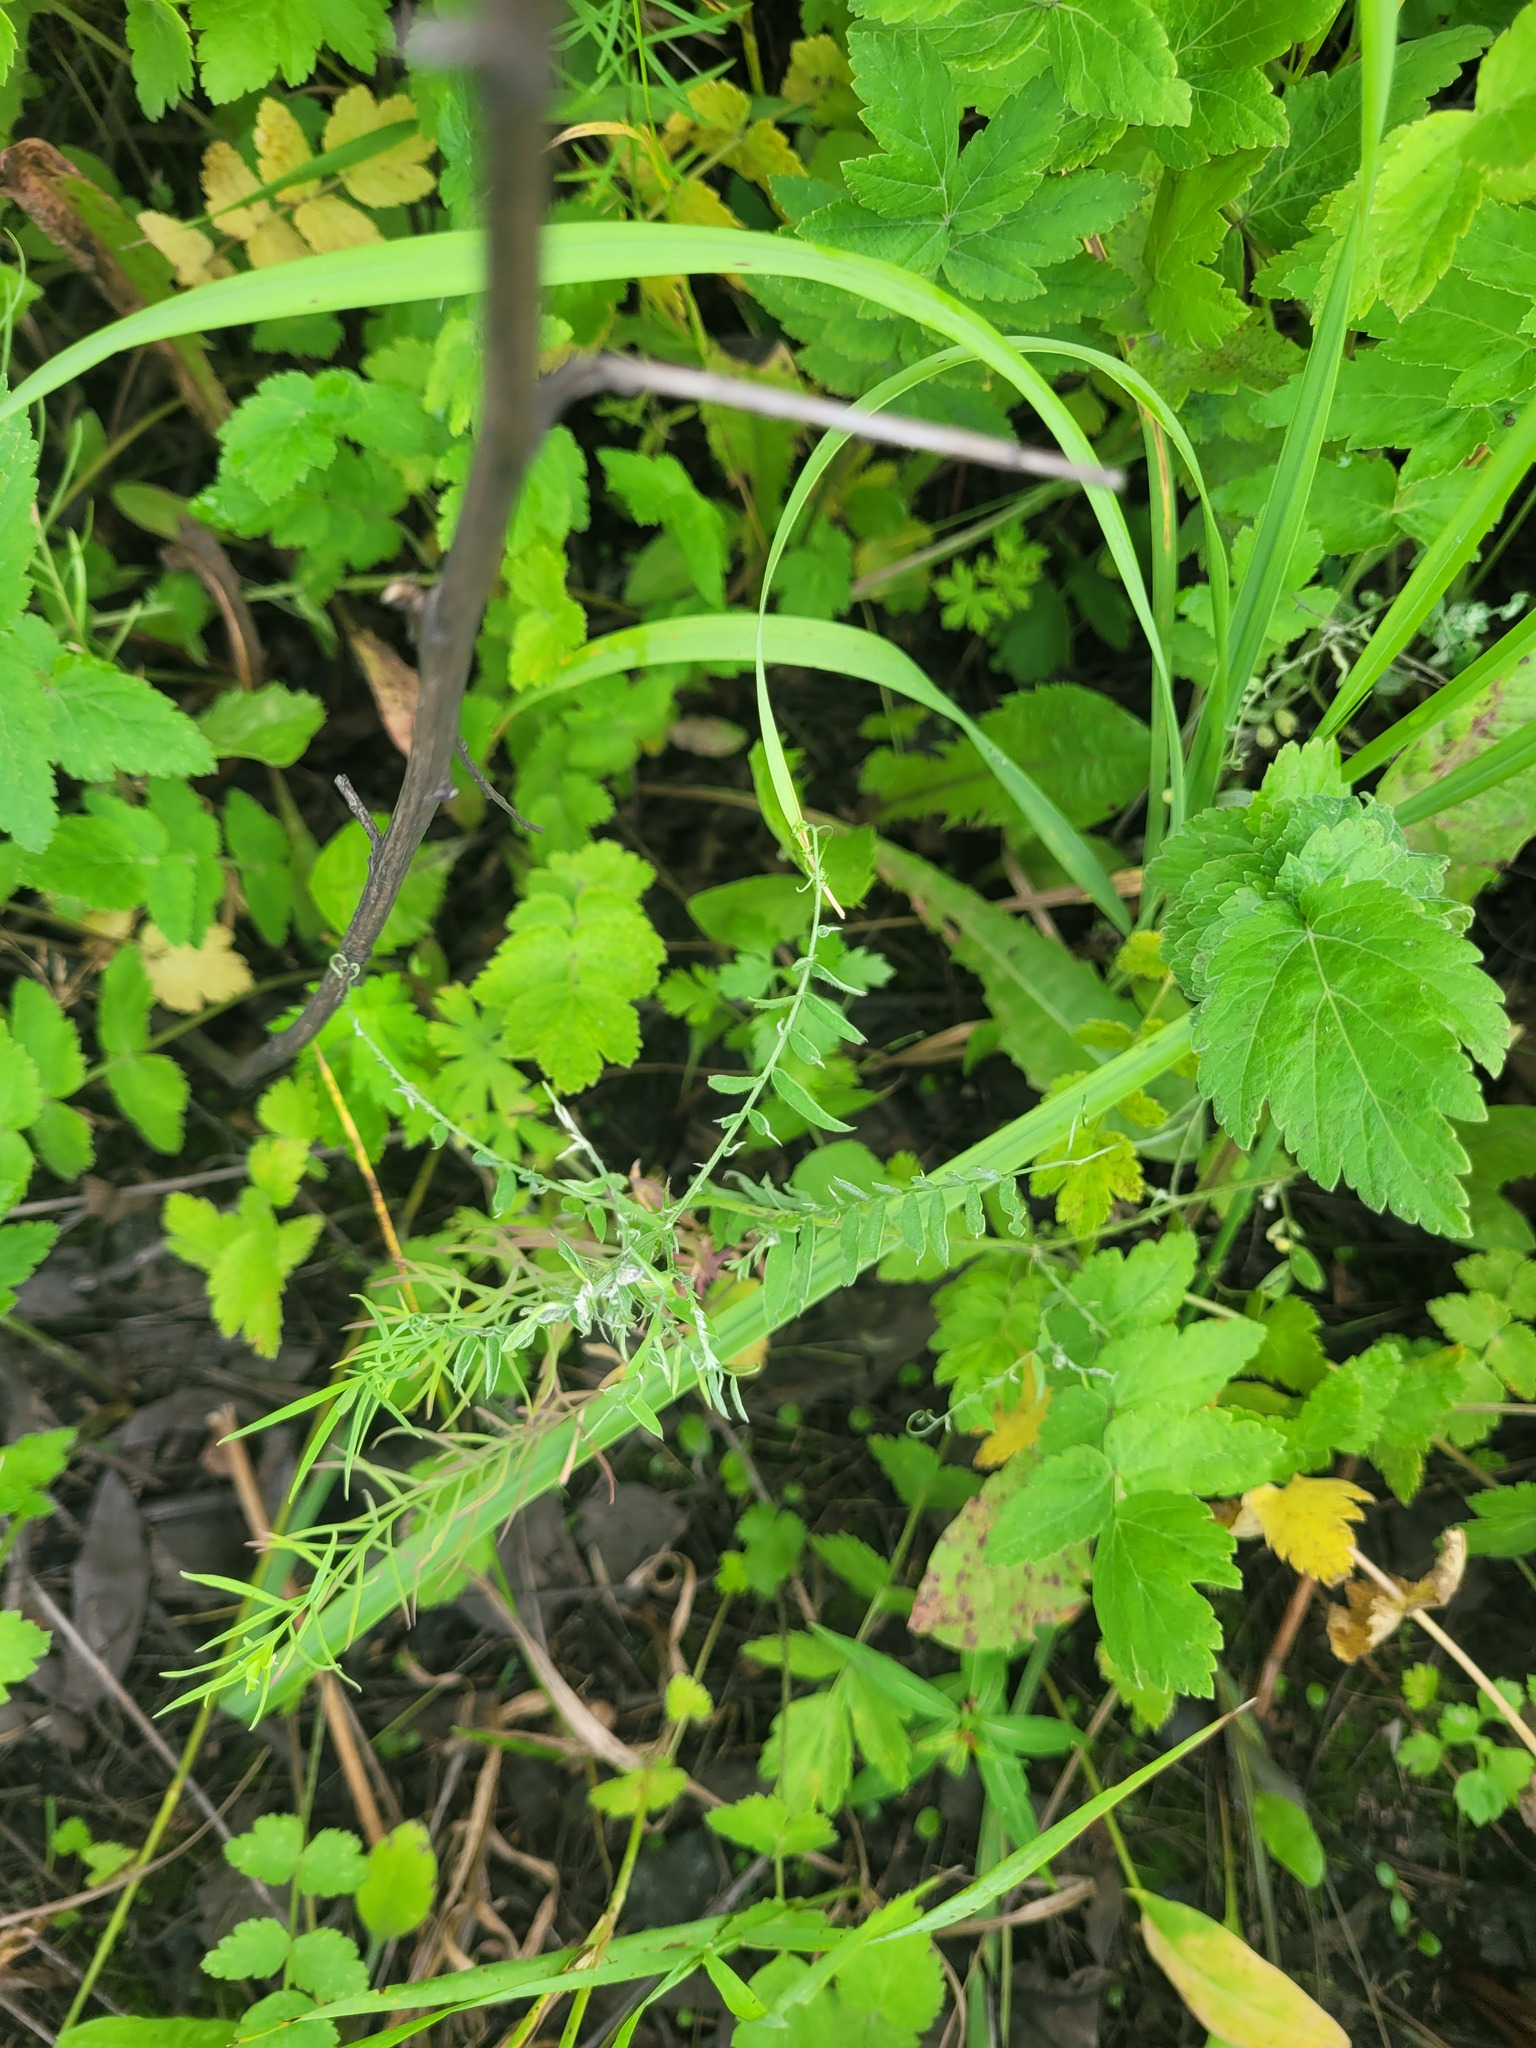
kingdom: Plantae
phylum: Tracheophyta
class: Magnoliopsida
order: Fabales
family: Fabaceae
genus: Vicia
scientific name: Vicia cracca
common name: Bird vetch
